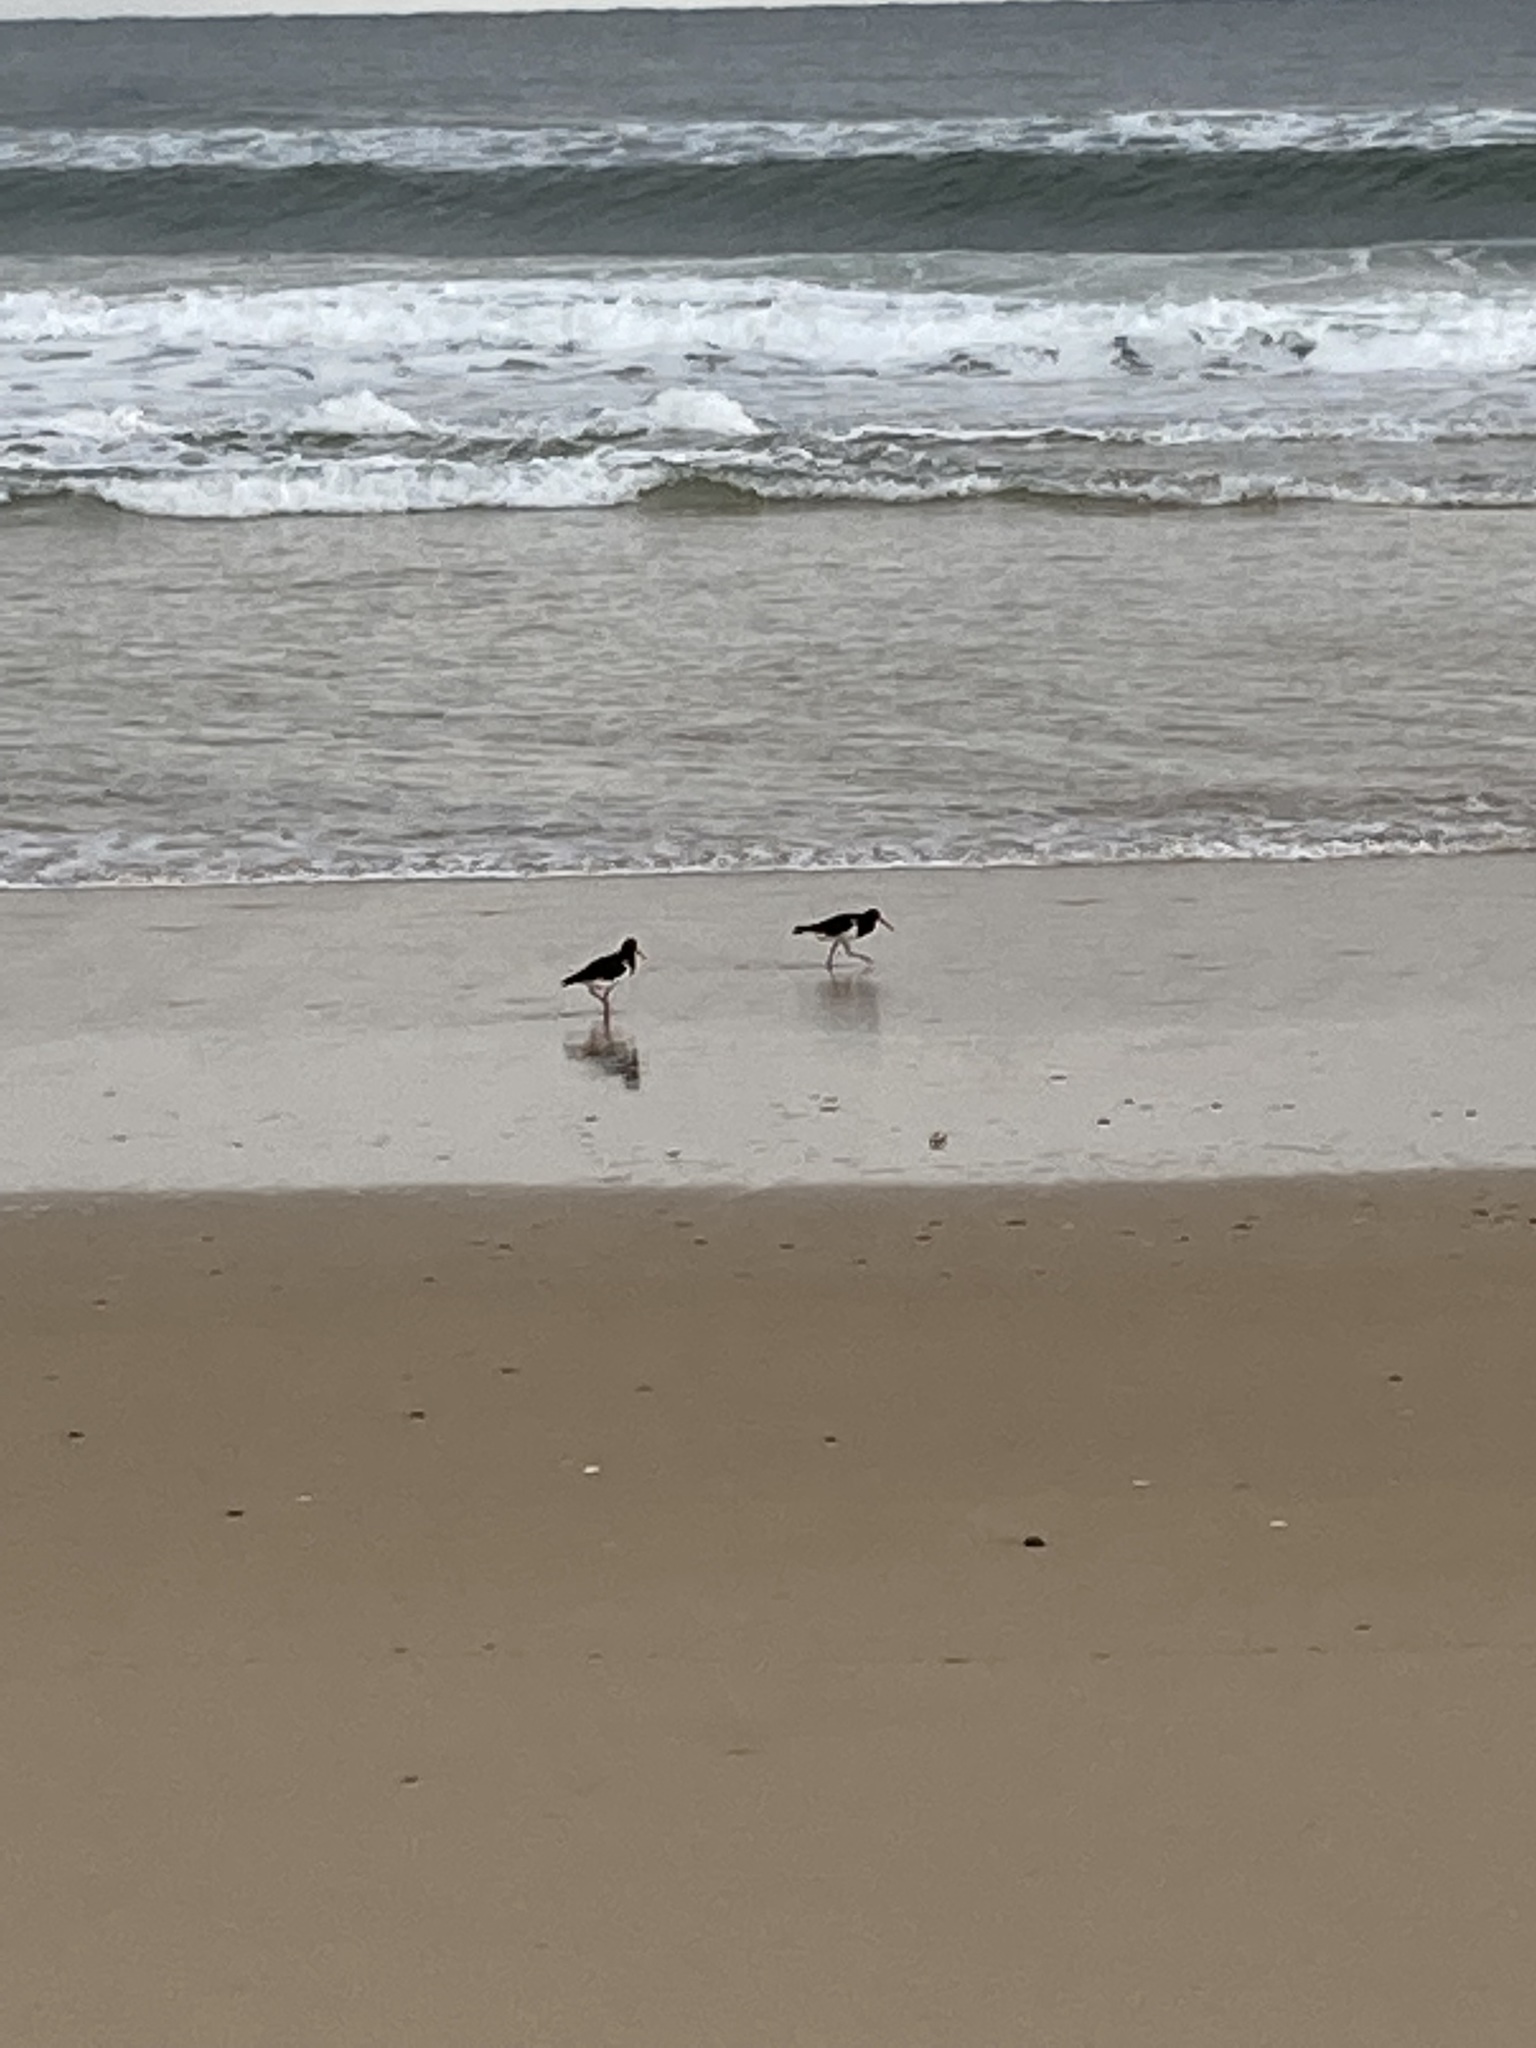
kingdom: Animalia
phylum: Chordata
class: Aves
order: Charadriiformes
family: Haematopodidae
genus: Haematopus
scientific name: Haematopus longirostris
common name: Pied oystercatcher
